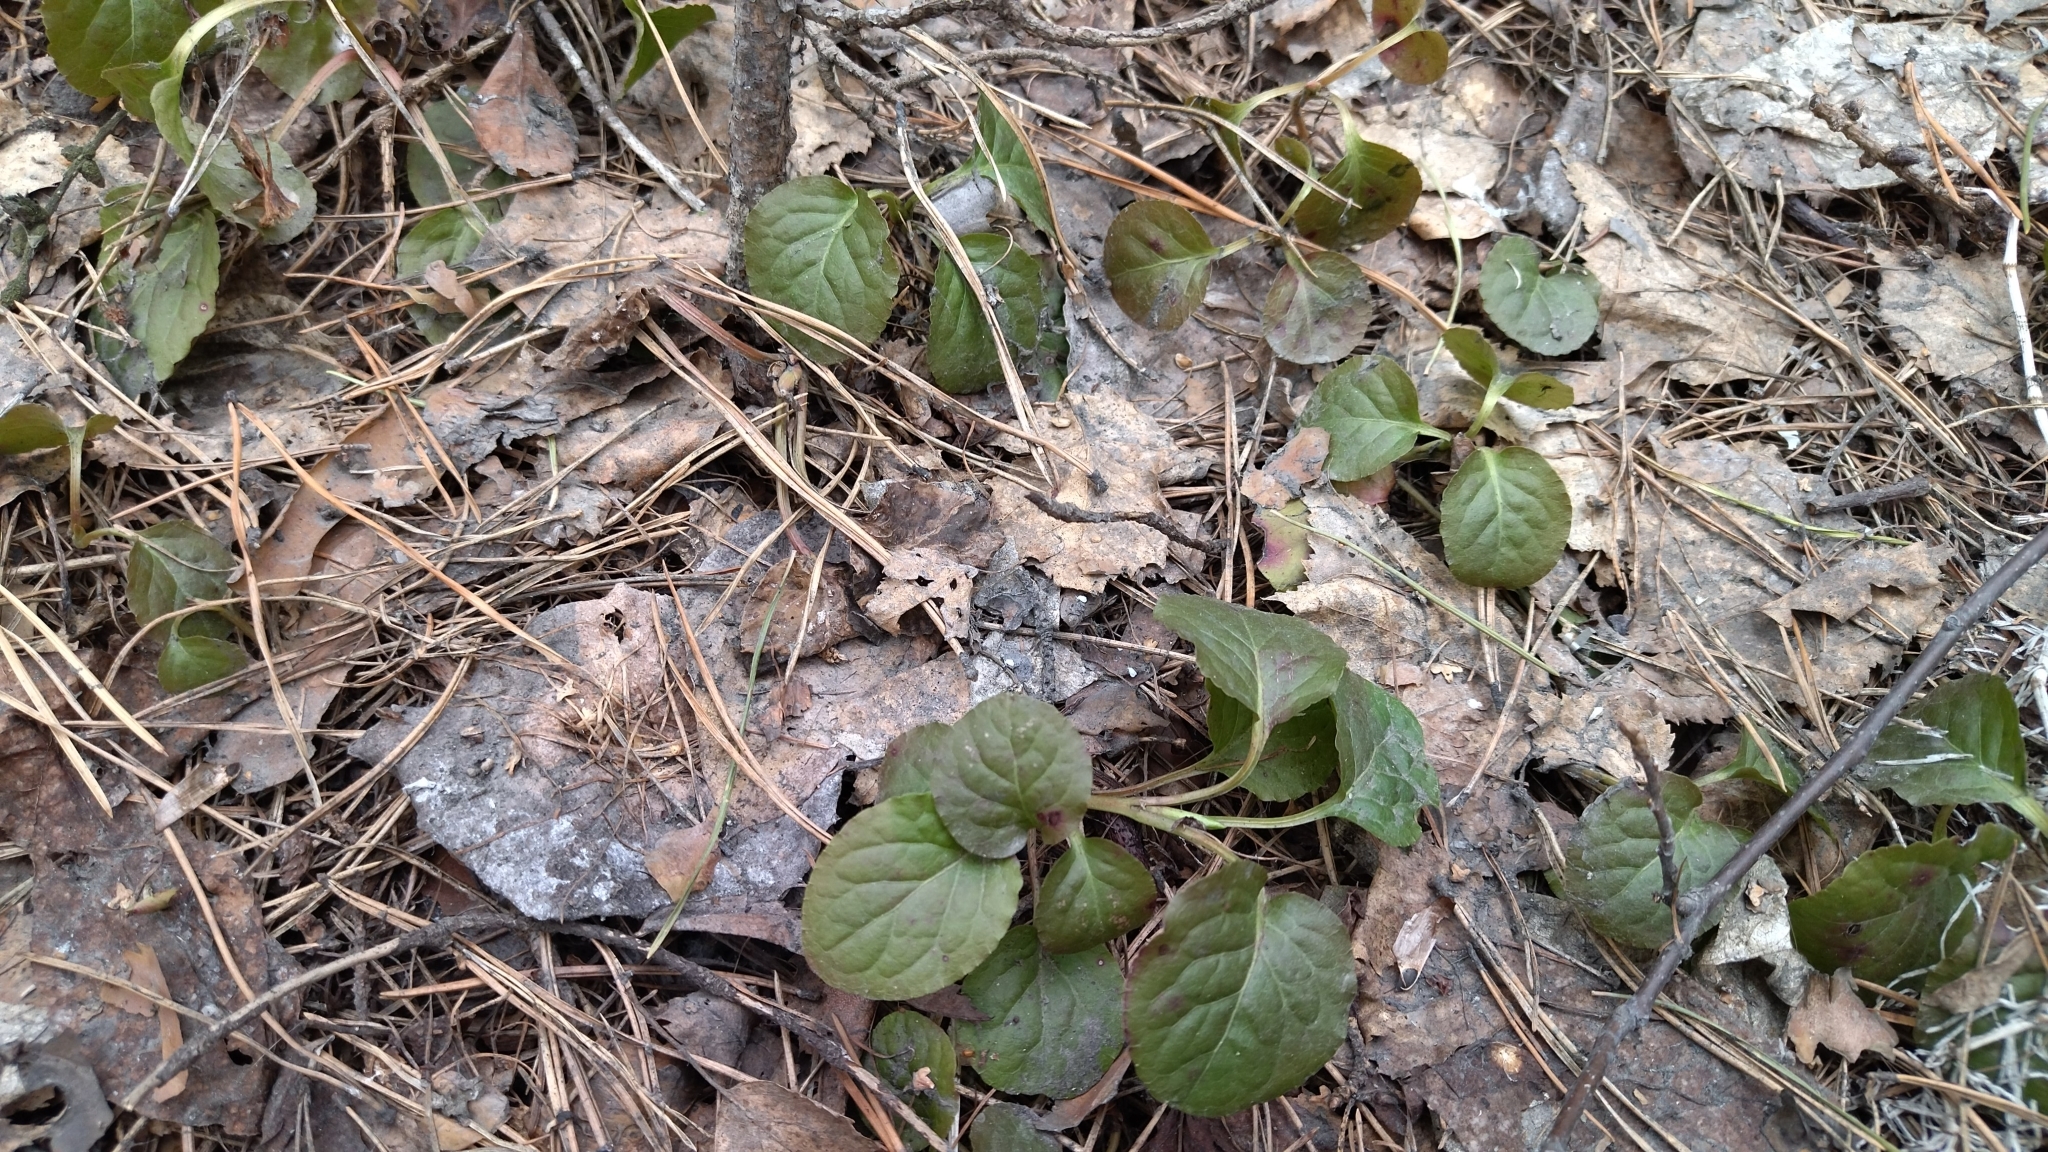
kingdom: Plantae
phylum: Tracheophyta
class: Magnoliopsida
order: Ericales
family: Ericaceae
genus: Pyrola
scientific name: Pyrola minor
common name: Common wintergreen
